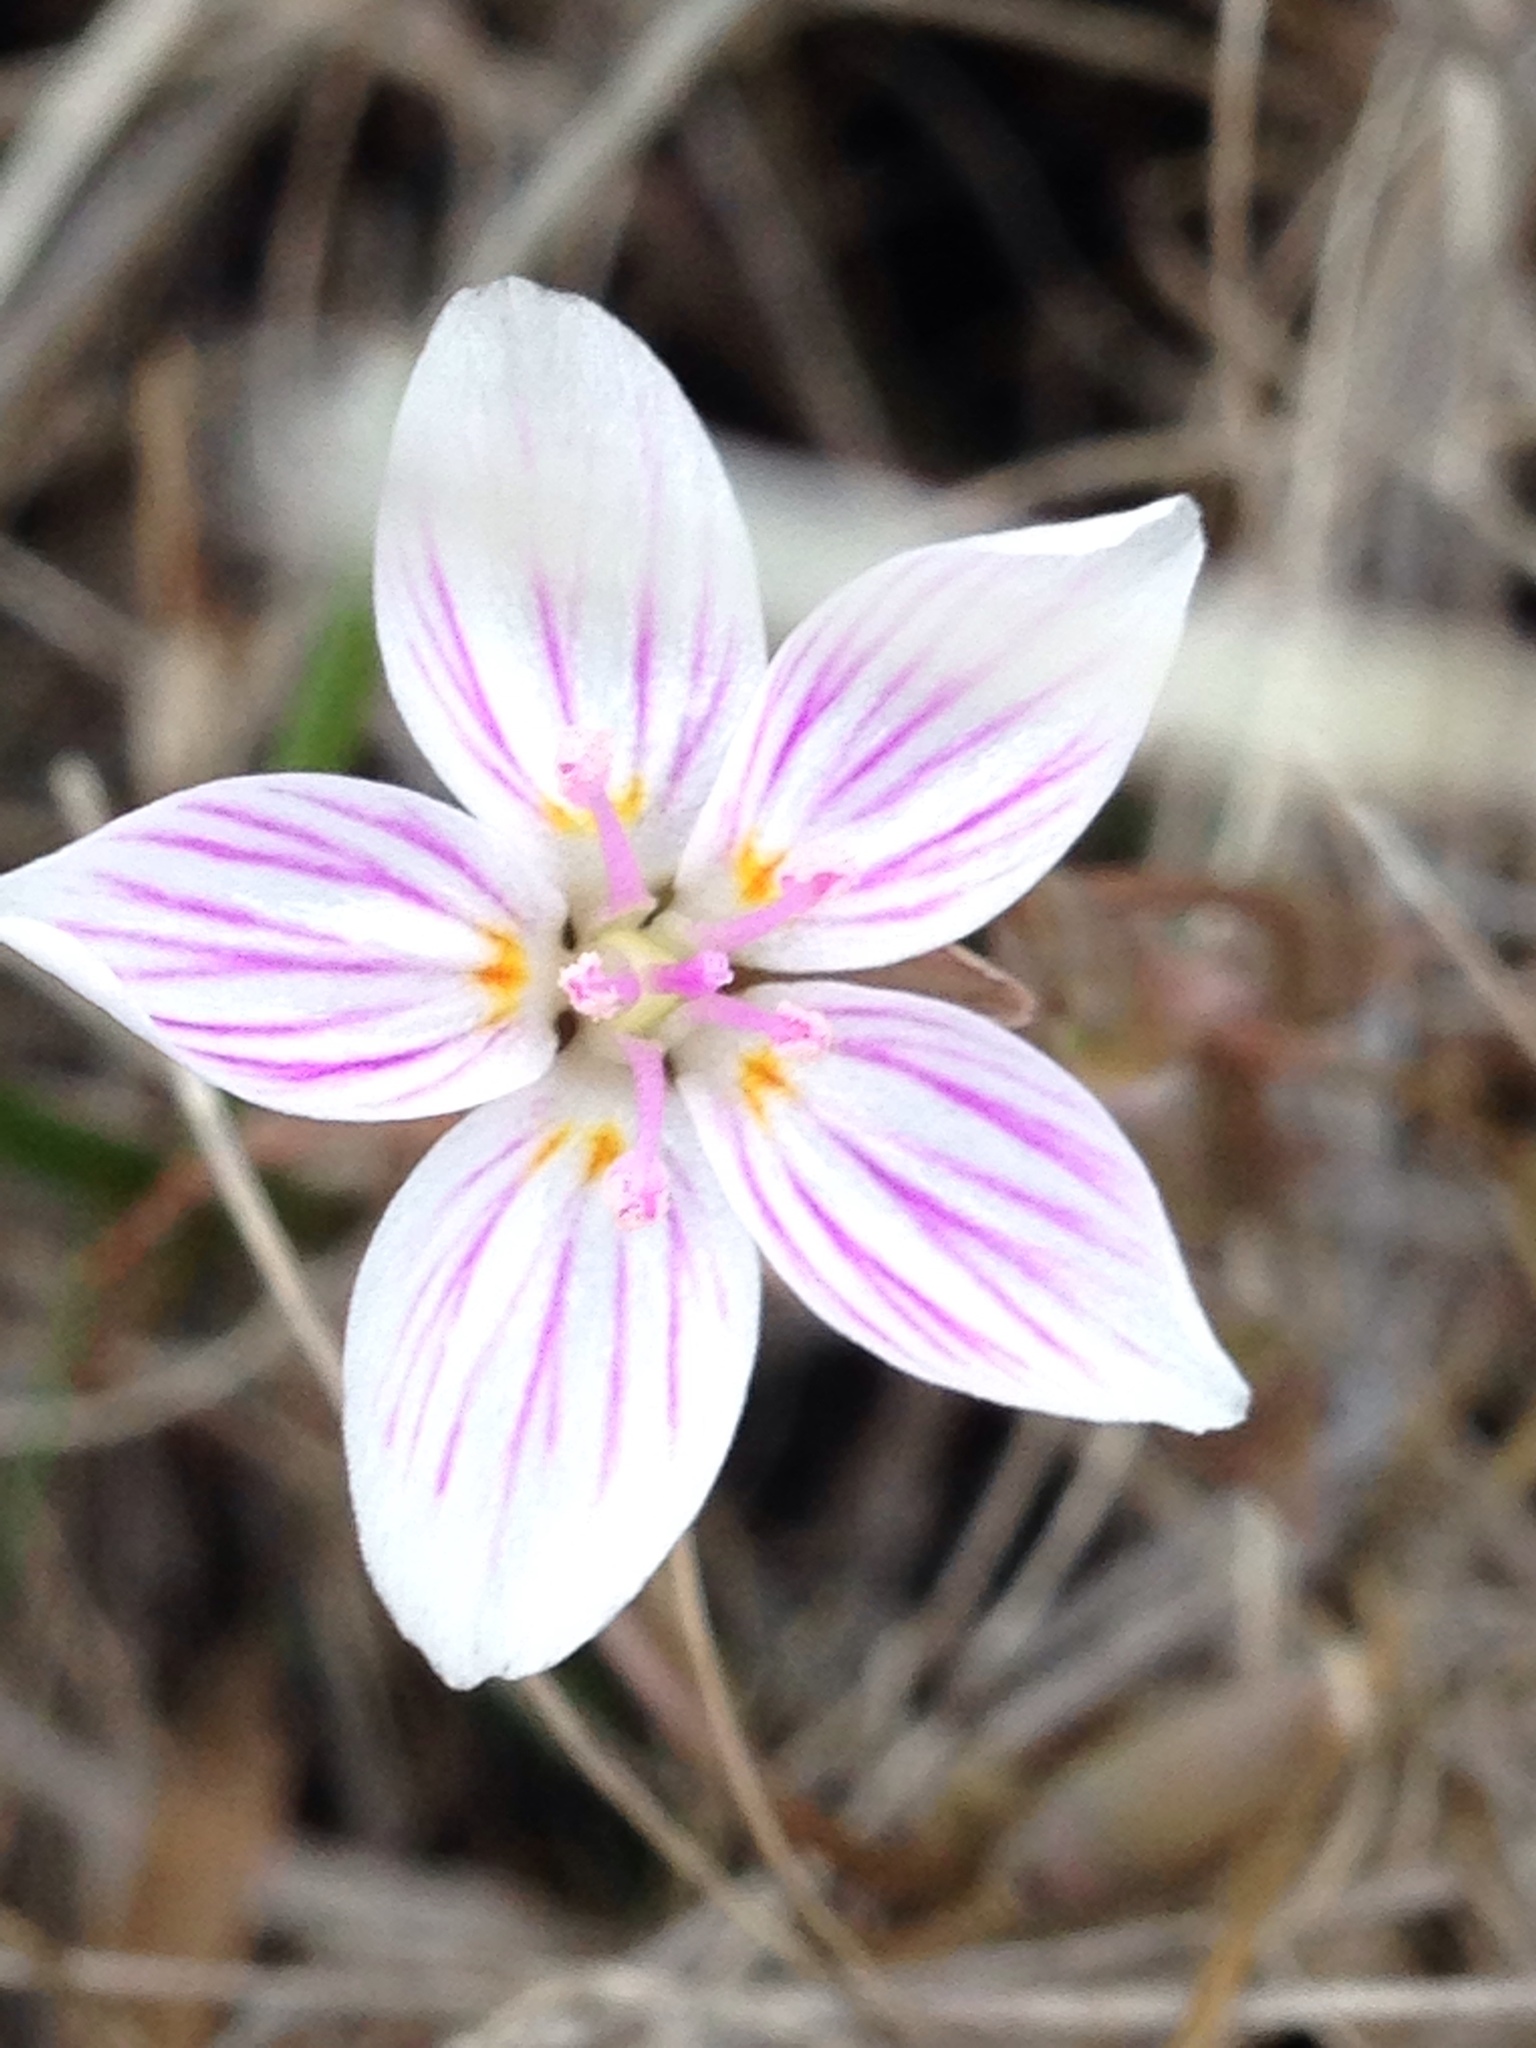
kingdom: Plantae
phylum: Tracheophyta
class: Magnoliopsida
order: Caryophyllales
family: Montiaceae
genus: Claytonia
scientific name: Claytonia virginica
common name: Virginia springbeauty
